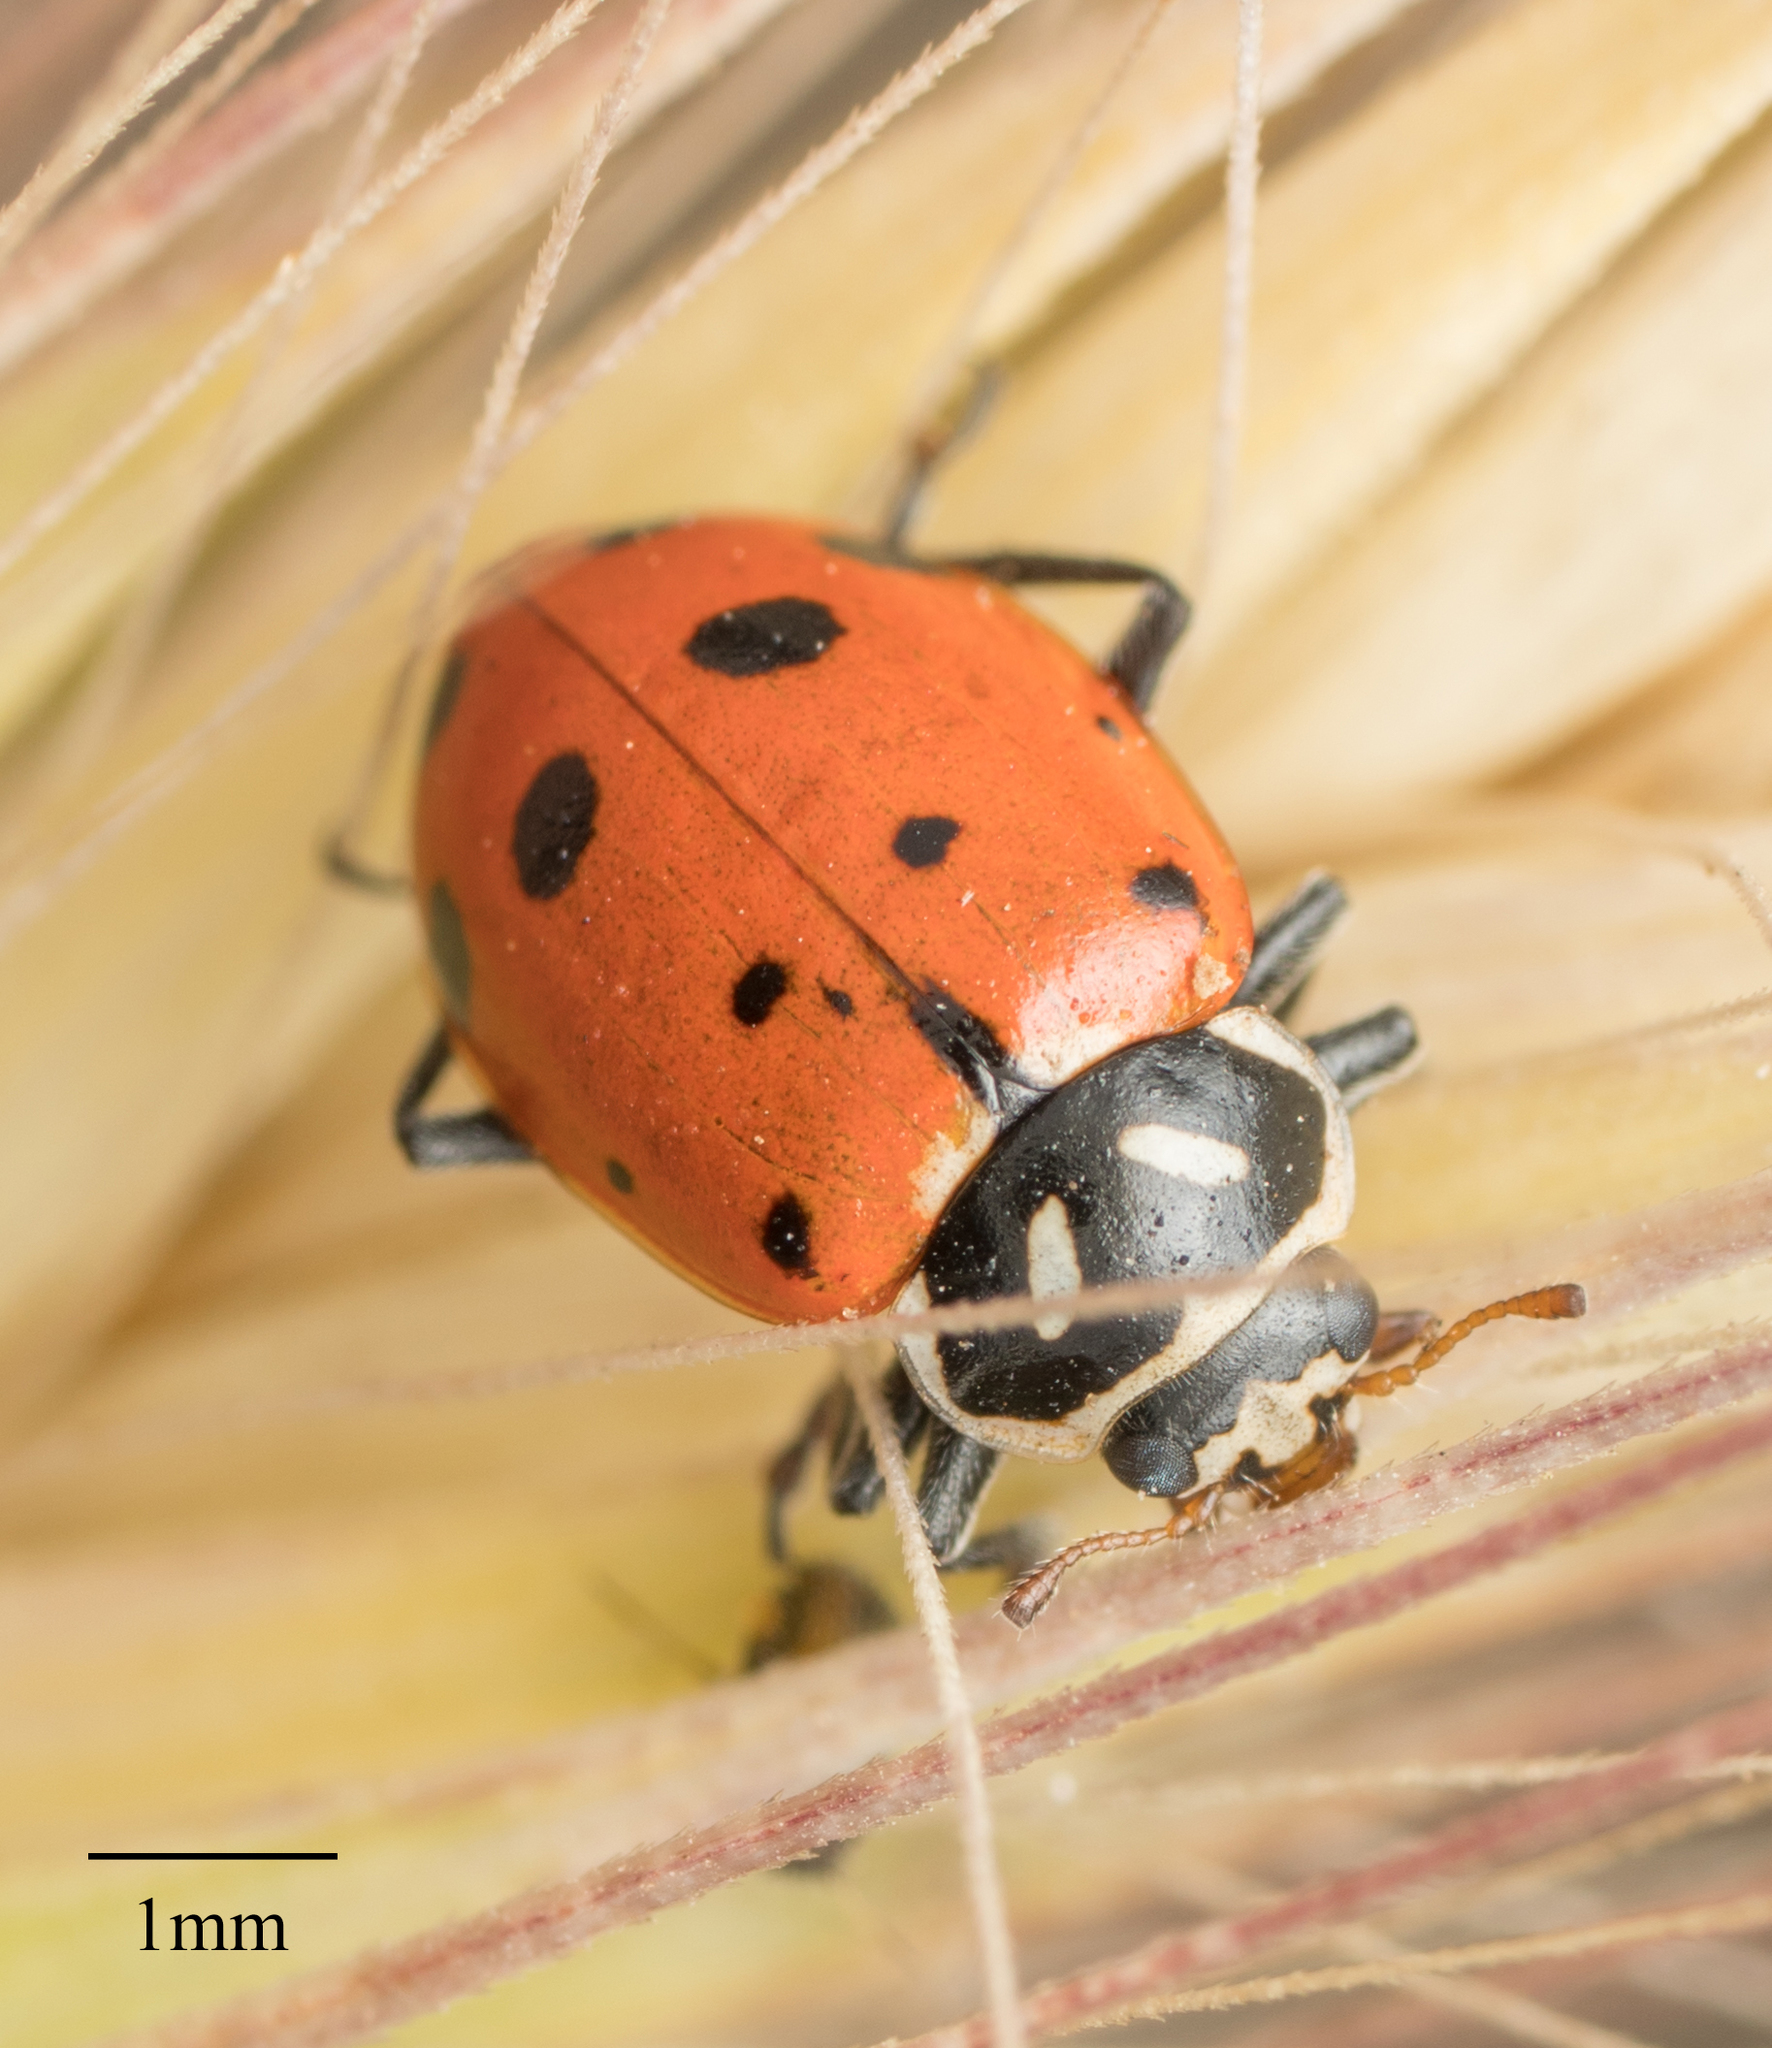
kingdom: Animalia
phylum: Arthropoda
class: Insecta
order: Coleoptera
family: Coccinellidae
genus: Hippodamia
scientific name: Hippodamia convergens
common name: Convergent lady beetle
